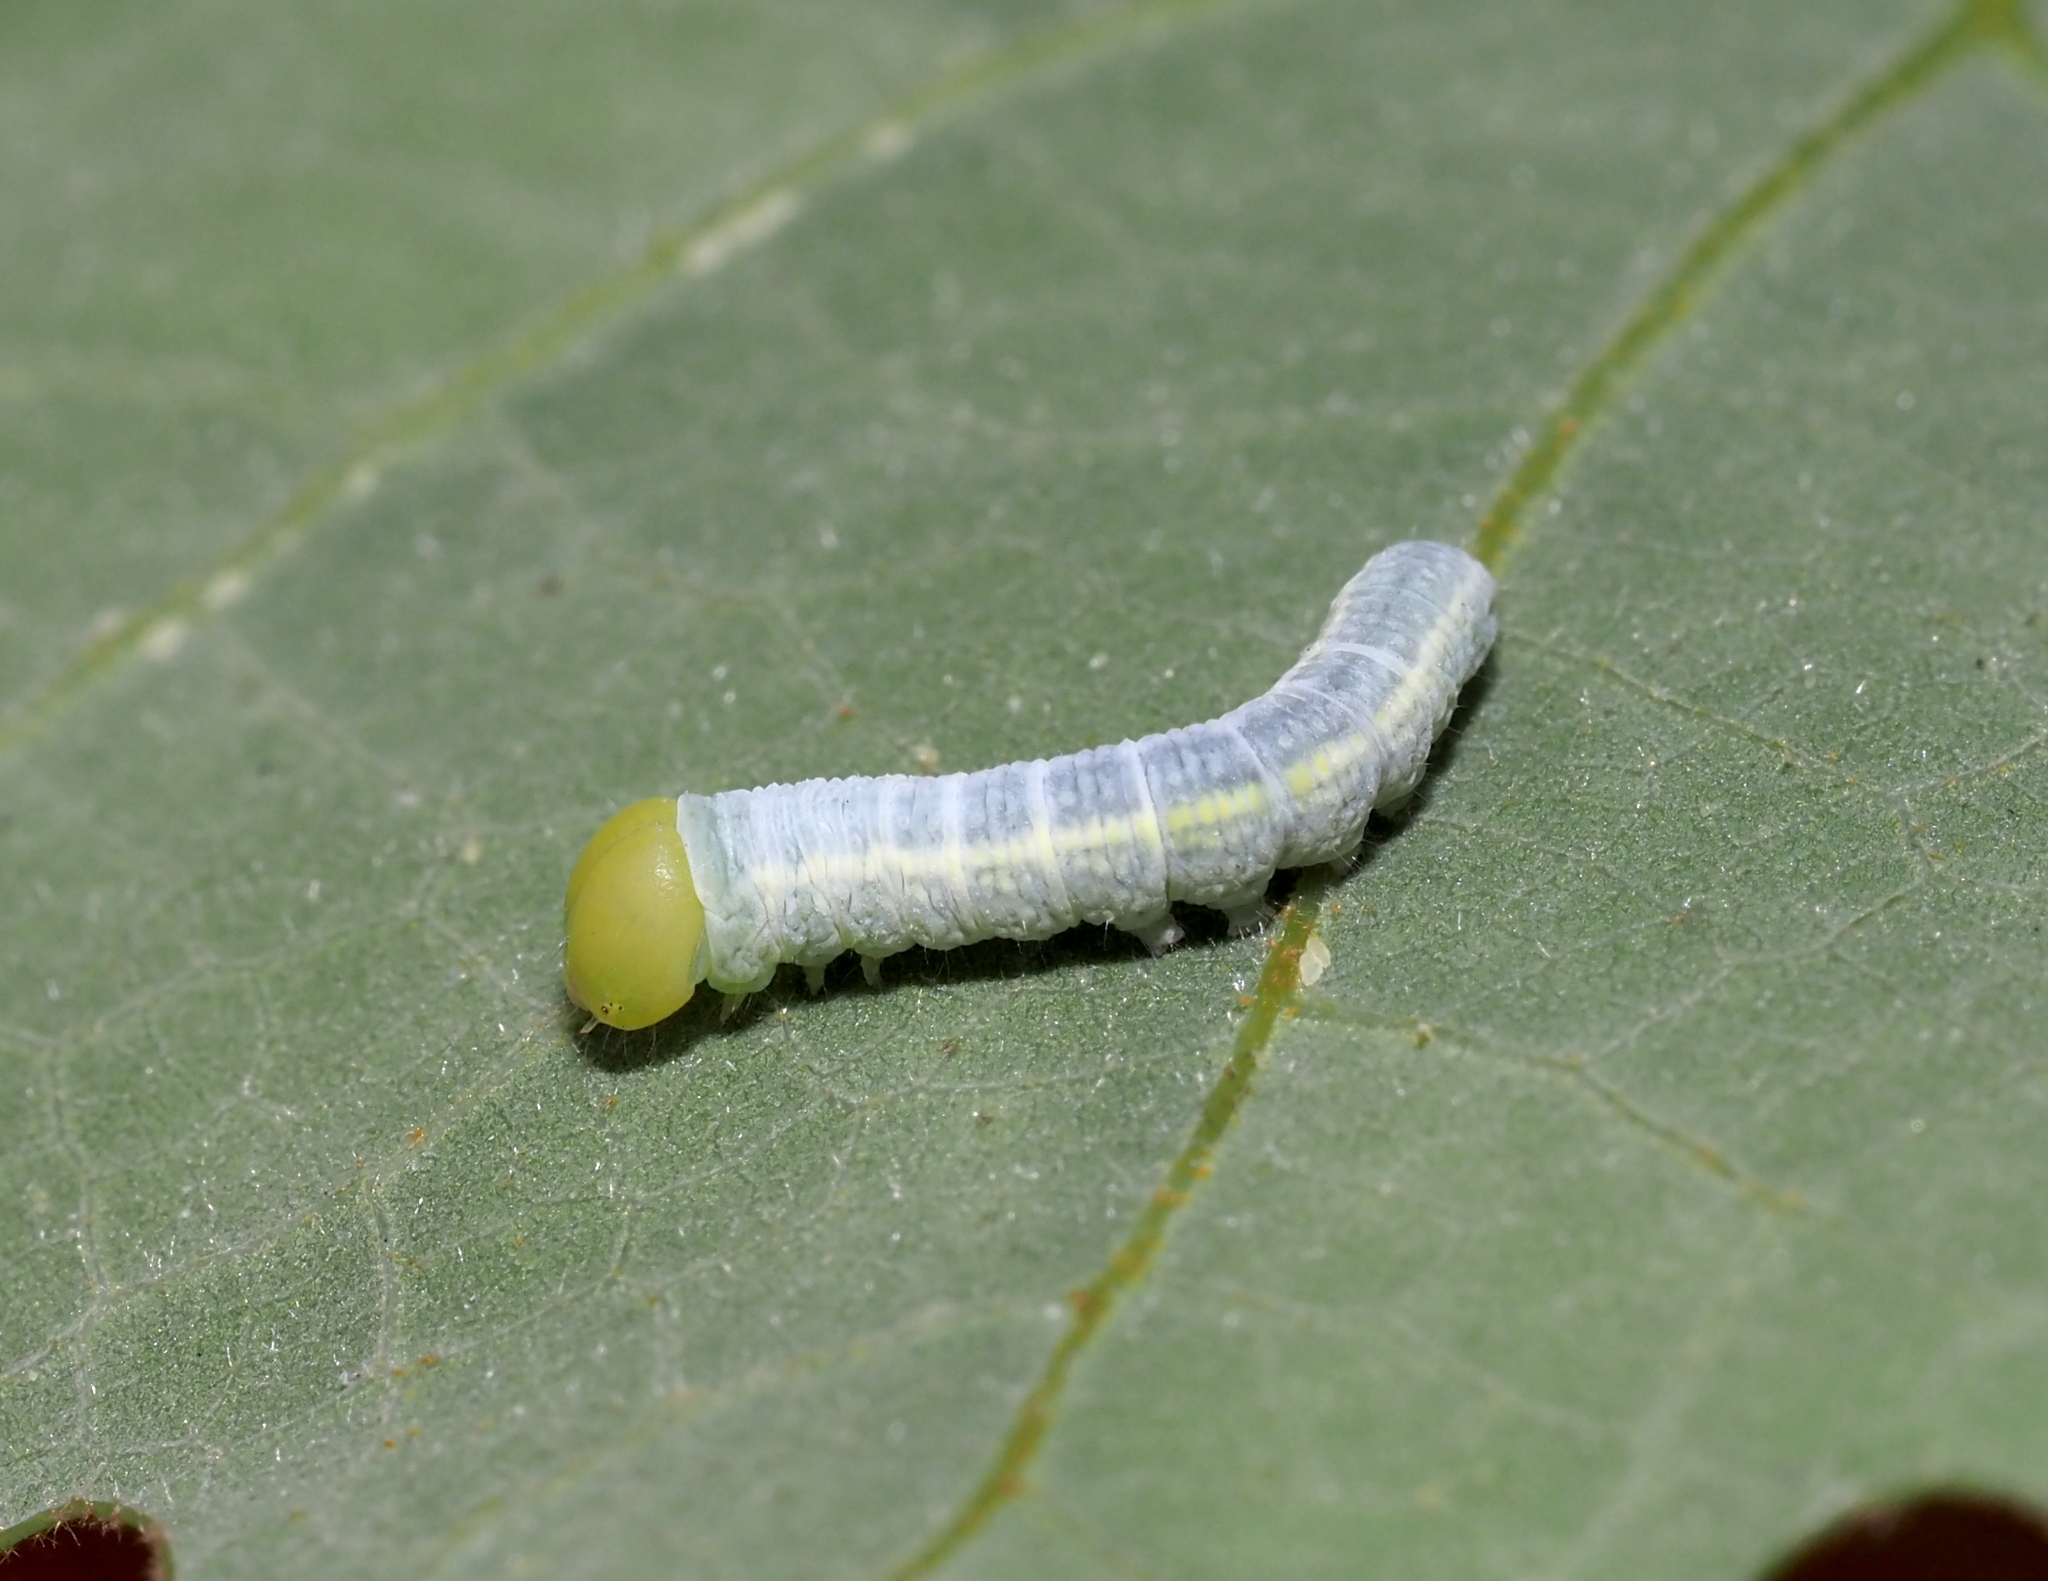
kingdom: Animalia
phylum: Arthropoda
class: Insecta
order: Lepidoptera
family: Notodontidae
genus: Nadata
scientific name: Nadata gibbosa
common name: White-dotted prominent
